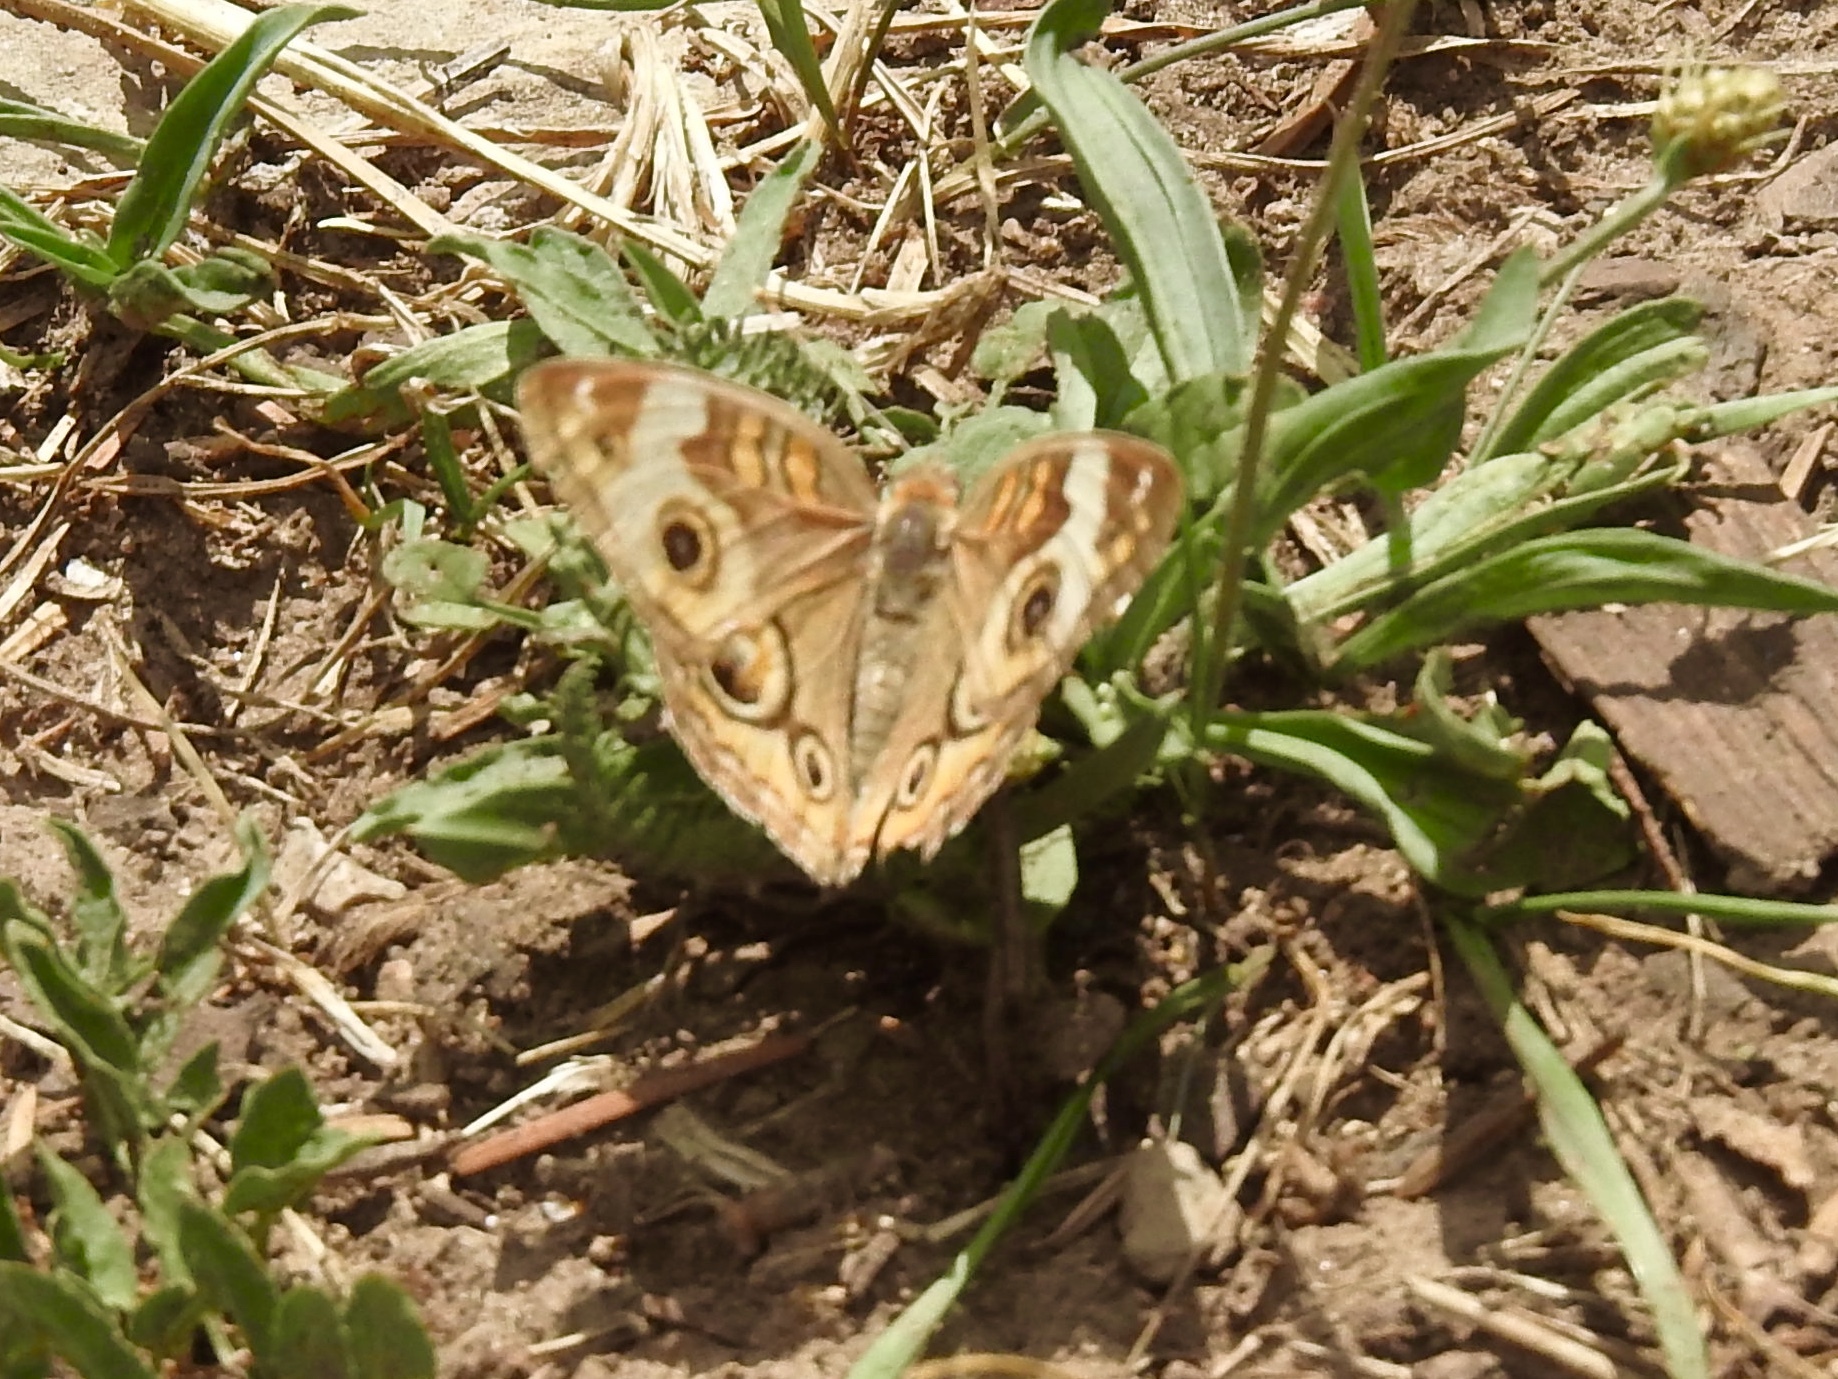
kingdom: Animalia
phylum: Arthropoda
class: Insecta
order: Lepidoptera
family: Nymphalidae
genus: Junonia
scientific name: Junonia grisea
